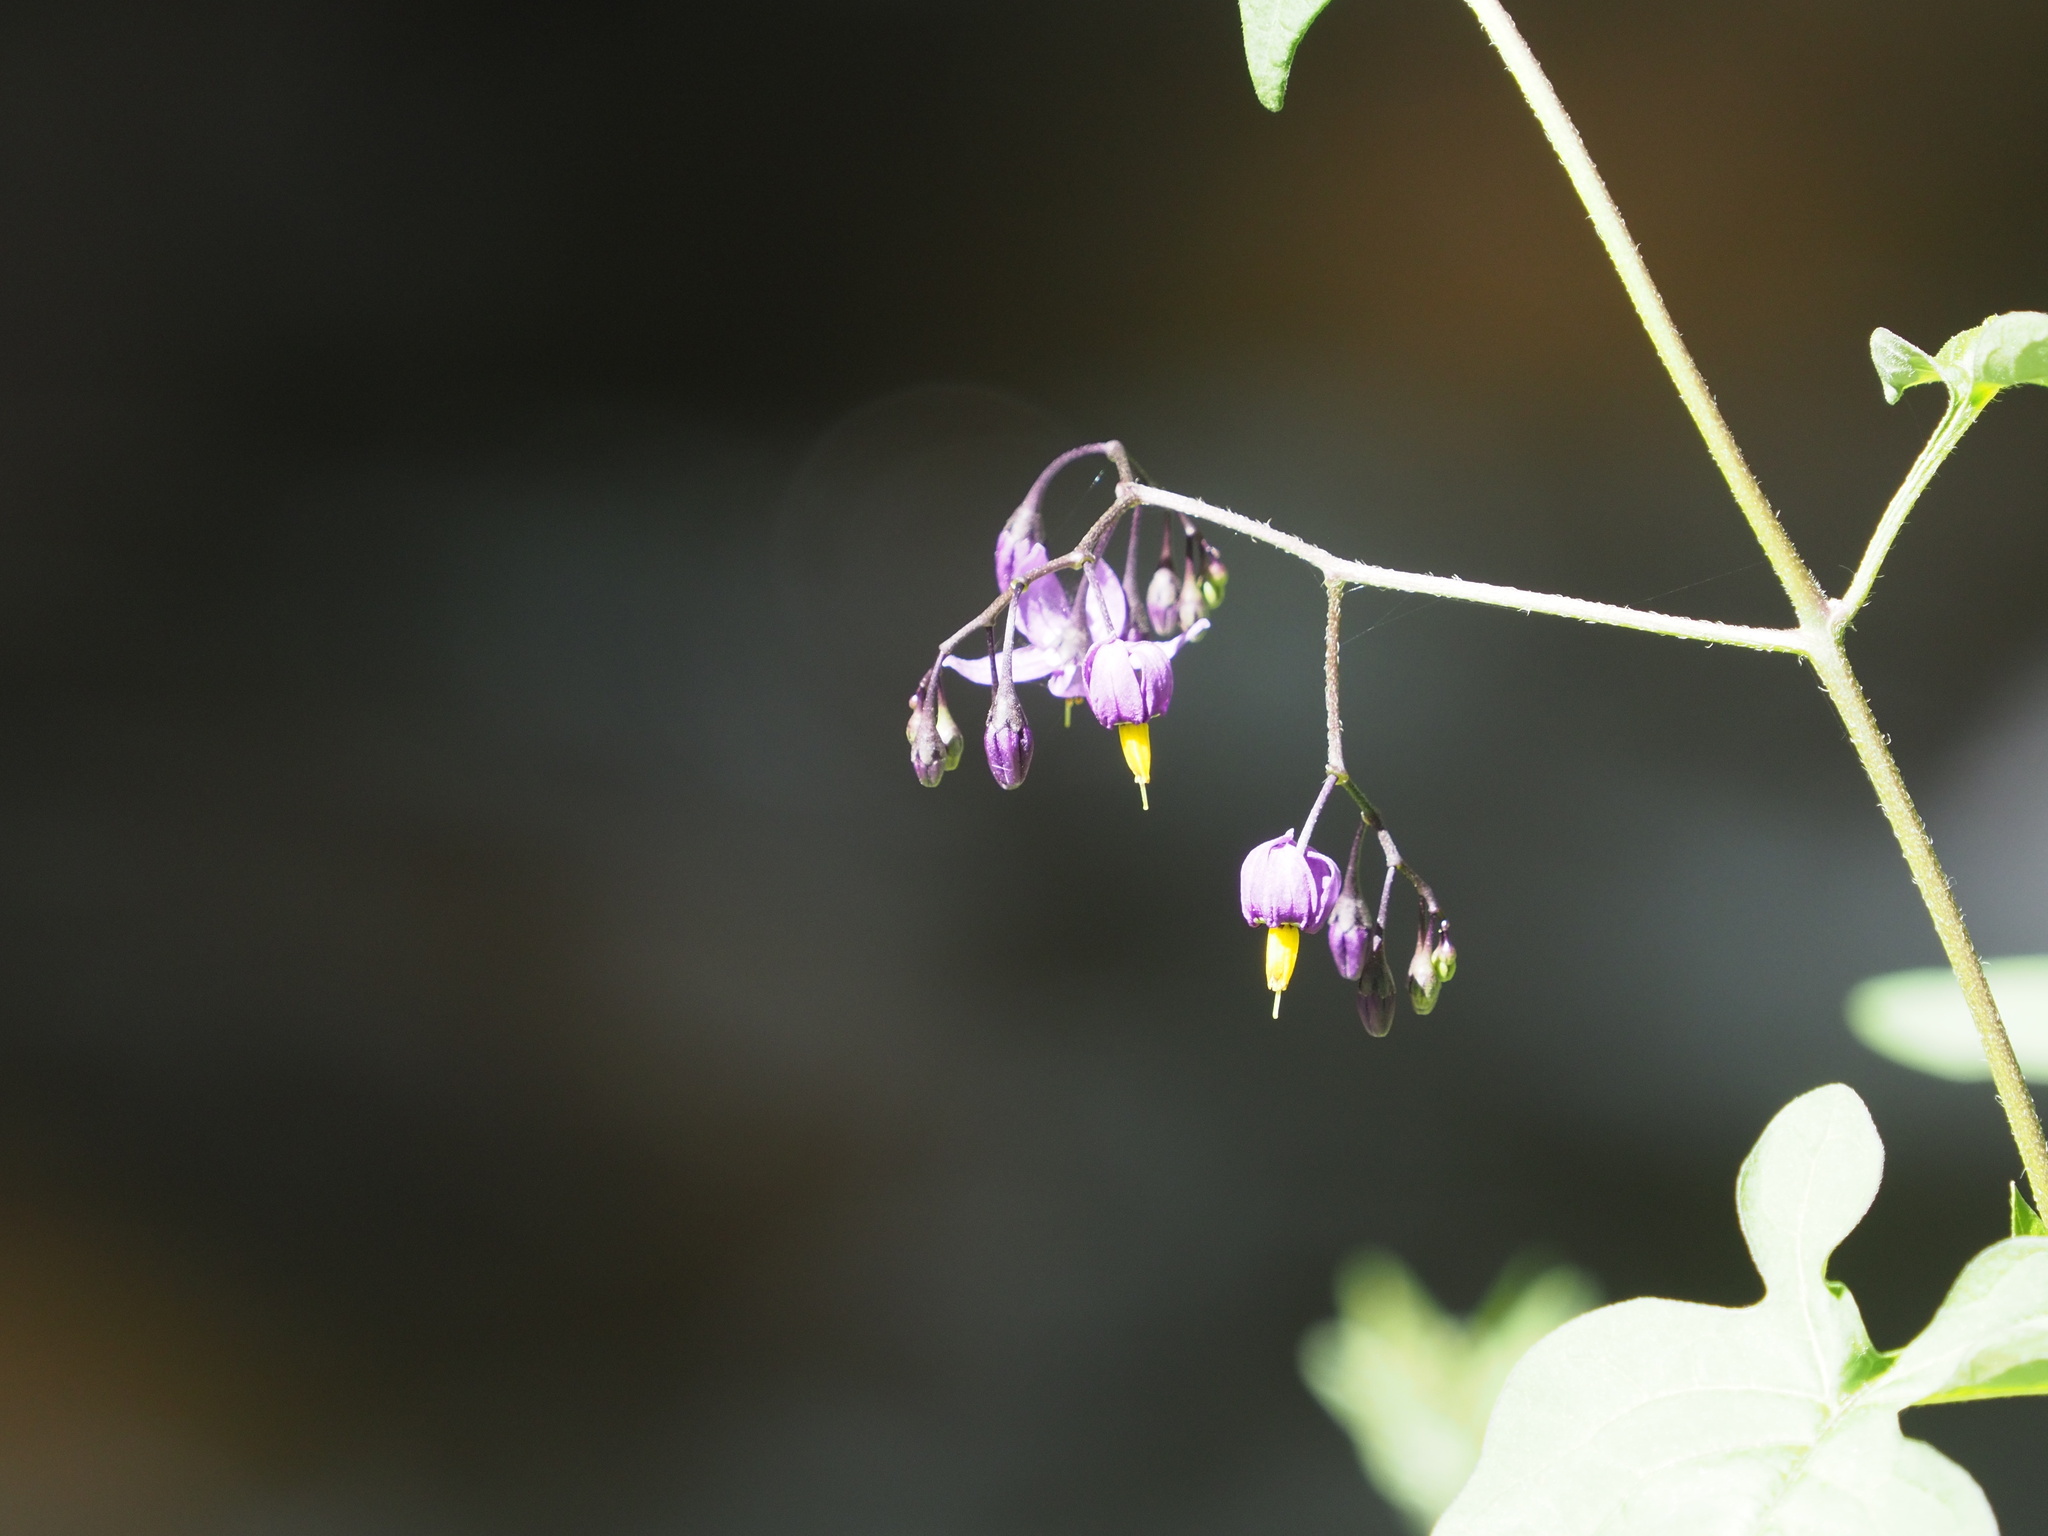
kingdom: Plantae
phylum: Tracheophyta
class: Magnoliopsida
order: Solanales
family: Solanaceae
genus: Solanum
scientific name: Solanum dulcamara
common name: Climbing nightshade
